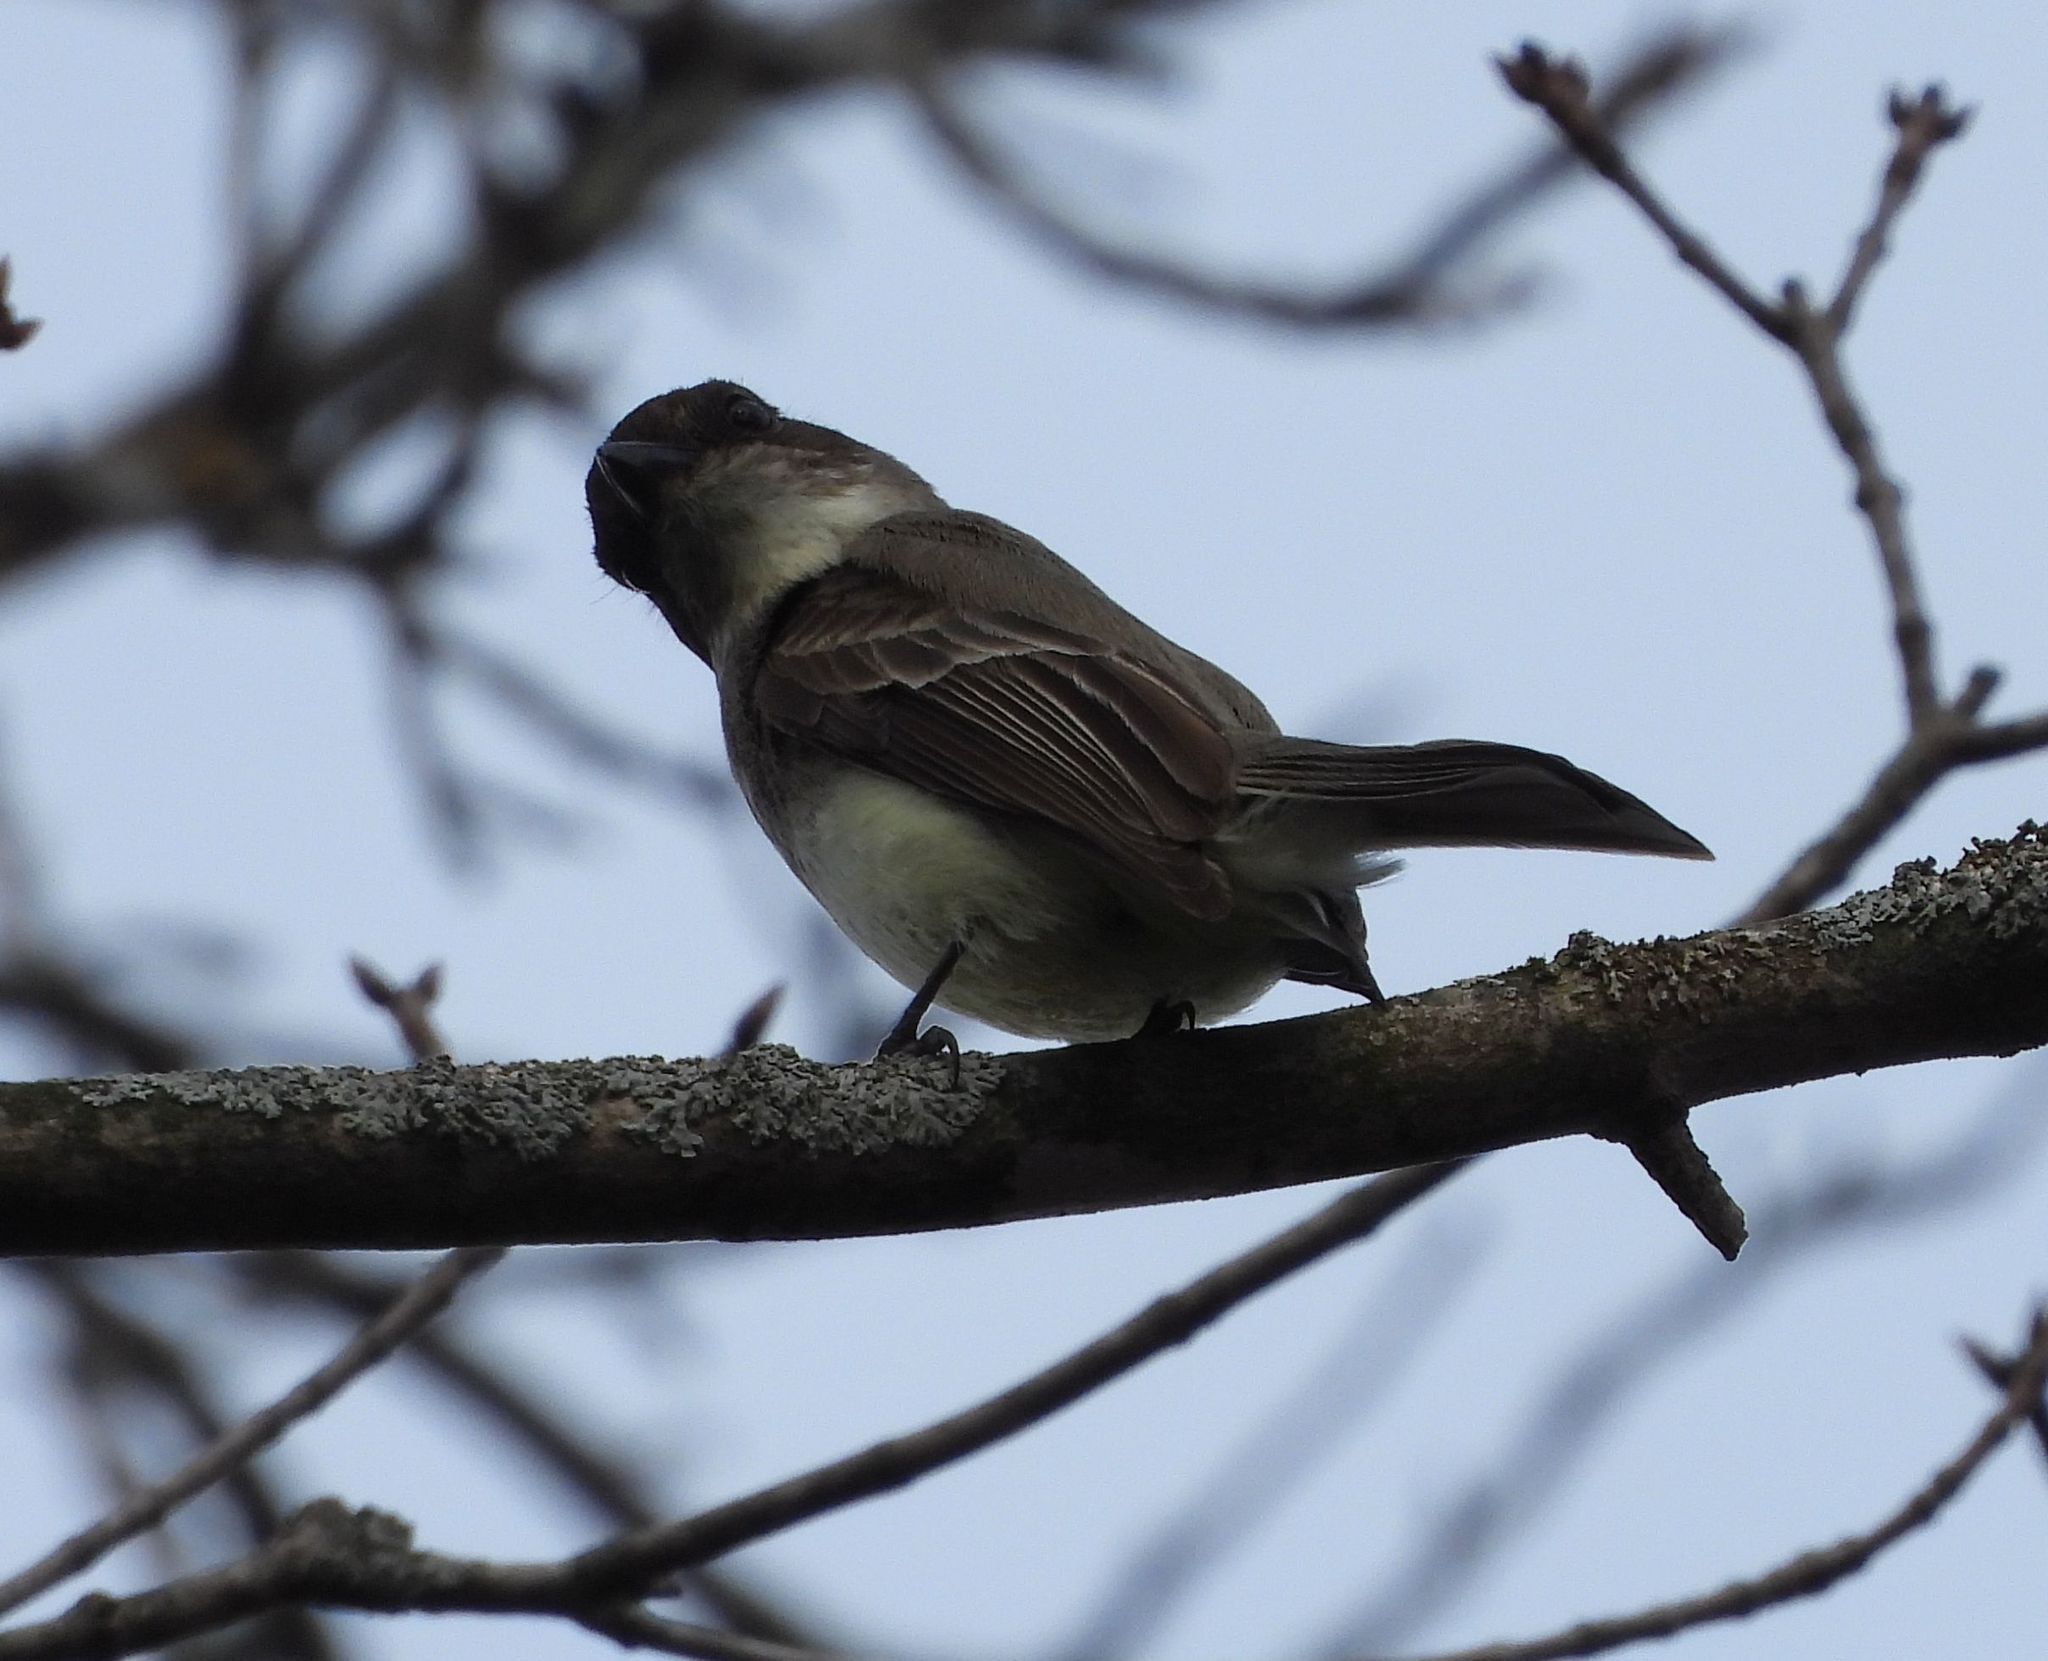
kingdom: Animalia
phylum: Chordata
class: Aves
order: Passeriformes
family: Tyrannidae
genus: Sayornis
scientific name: Sayornis phoebe
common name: Eastern phoebe
